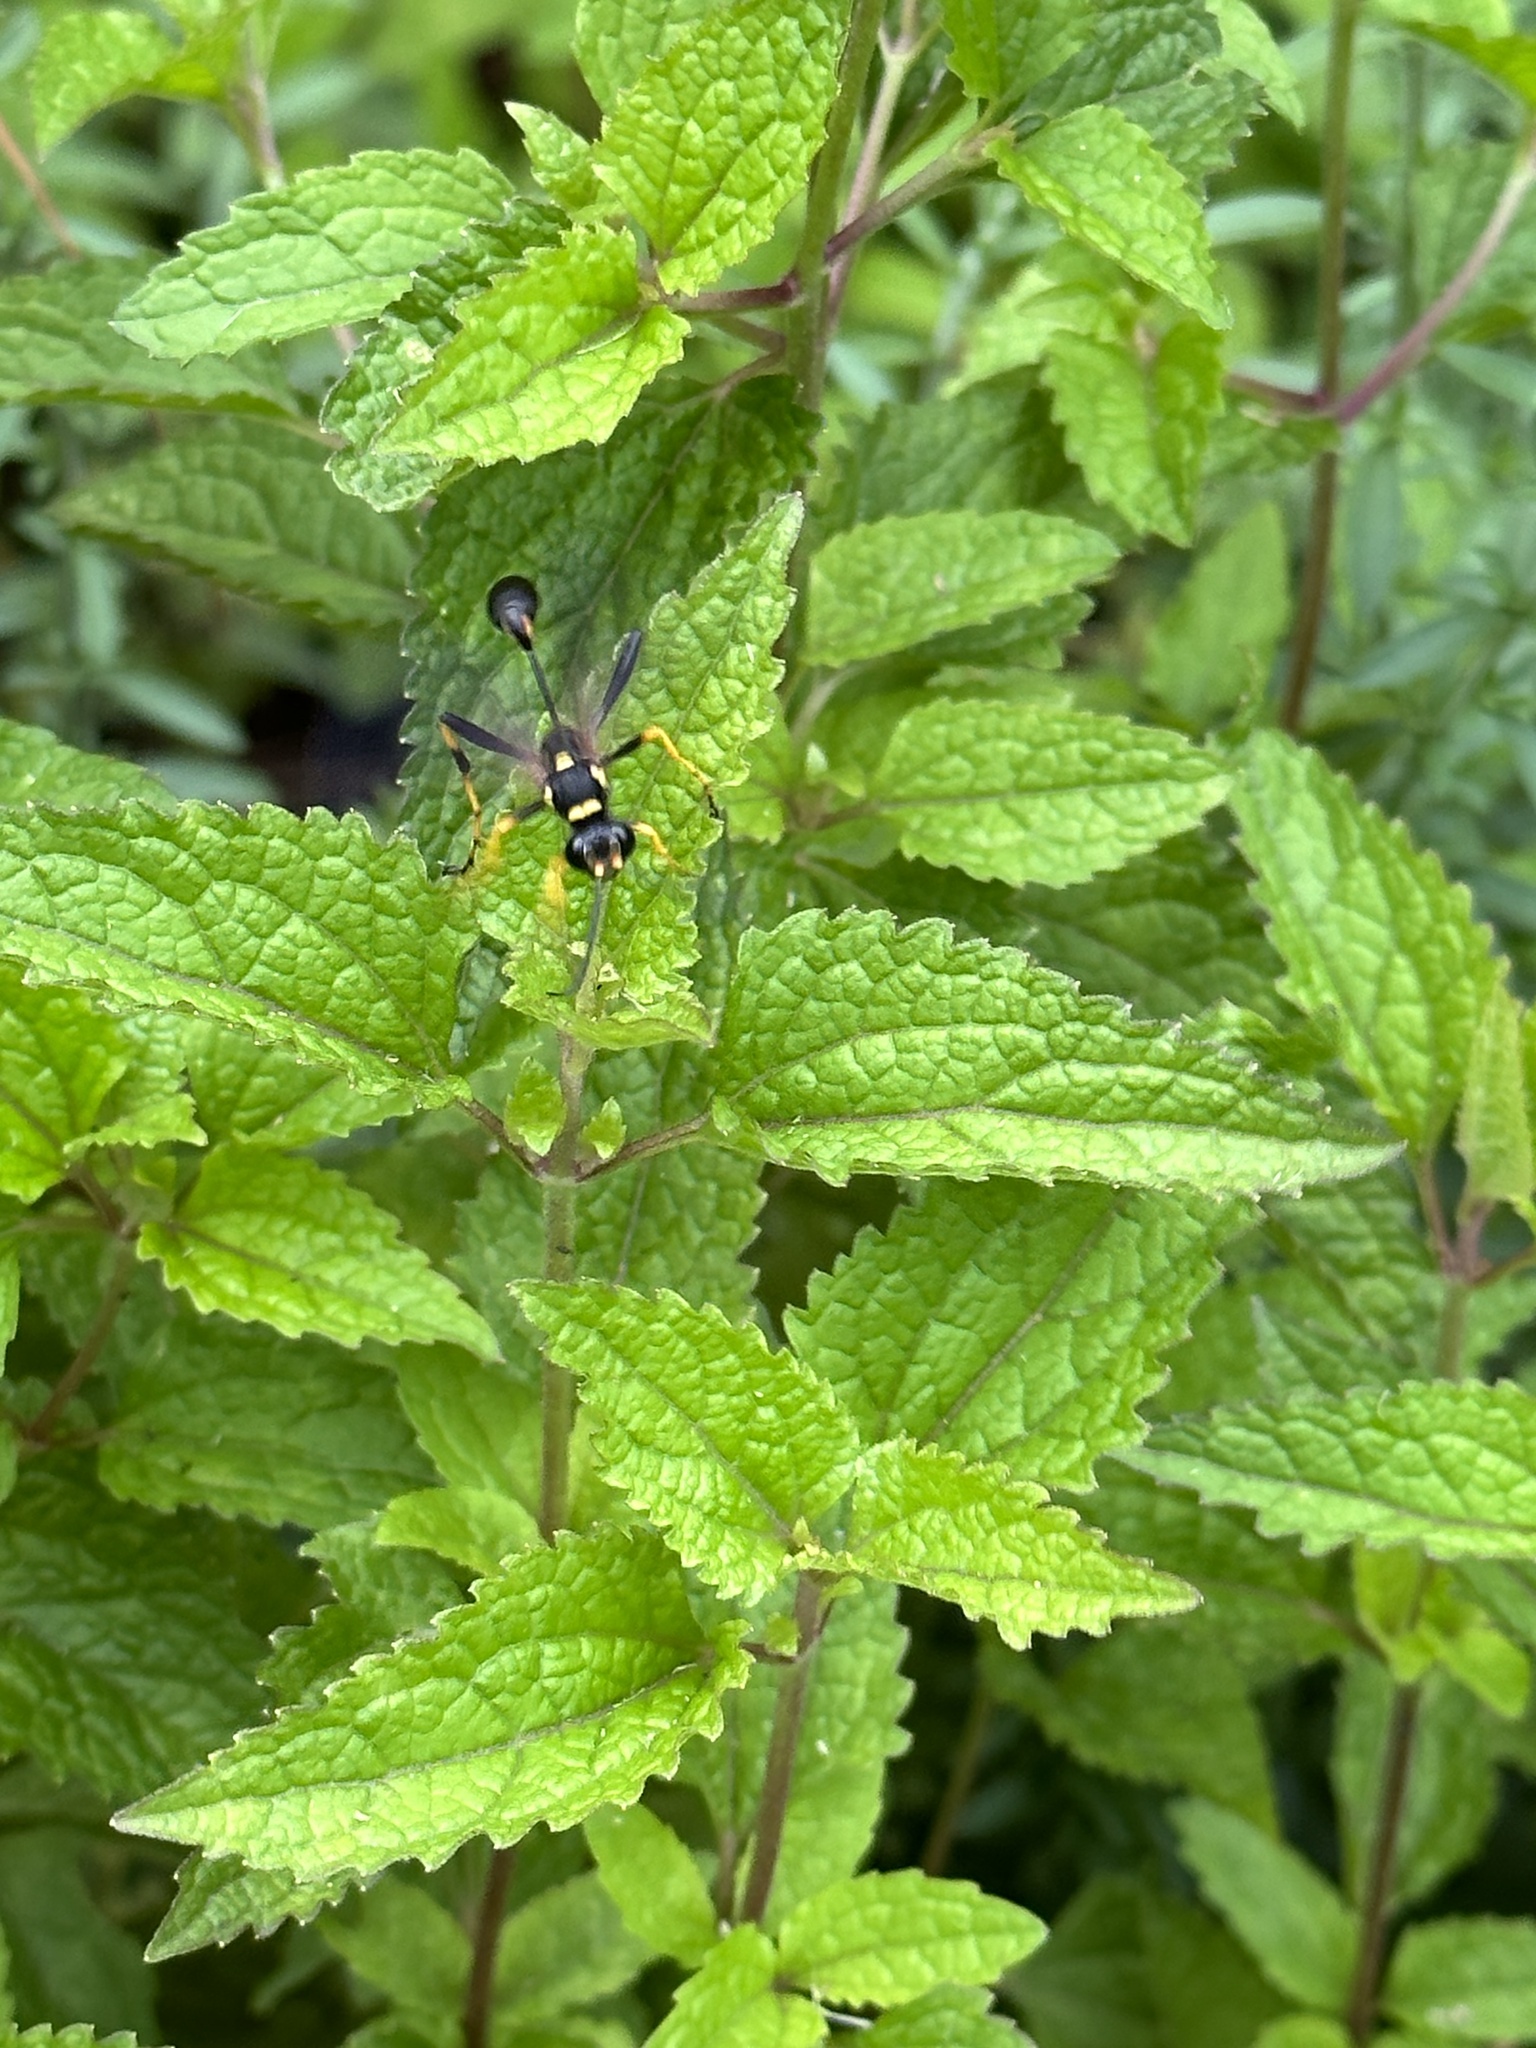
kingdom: Animalia
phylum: Arthropoda
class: Insecta
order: Hymenoptera
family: Sphecidae
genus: Sceliphron
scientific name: Sceliphron caementarium
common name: Mud dauber
